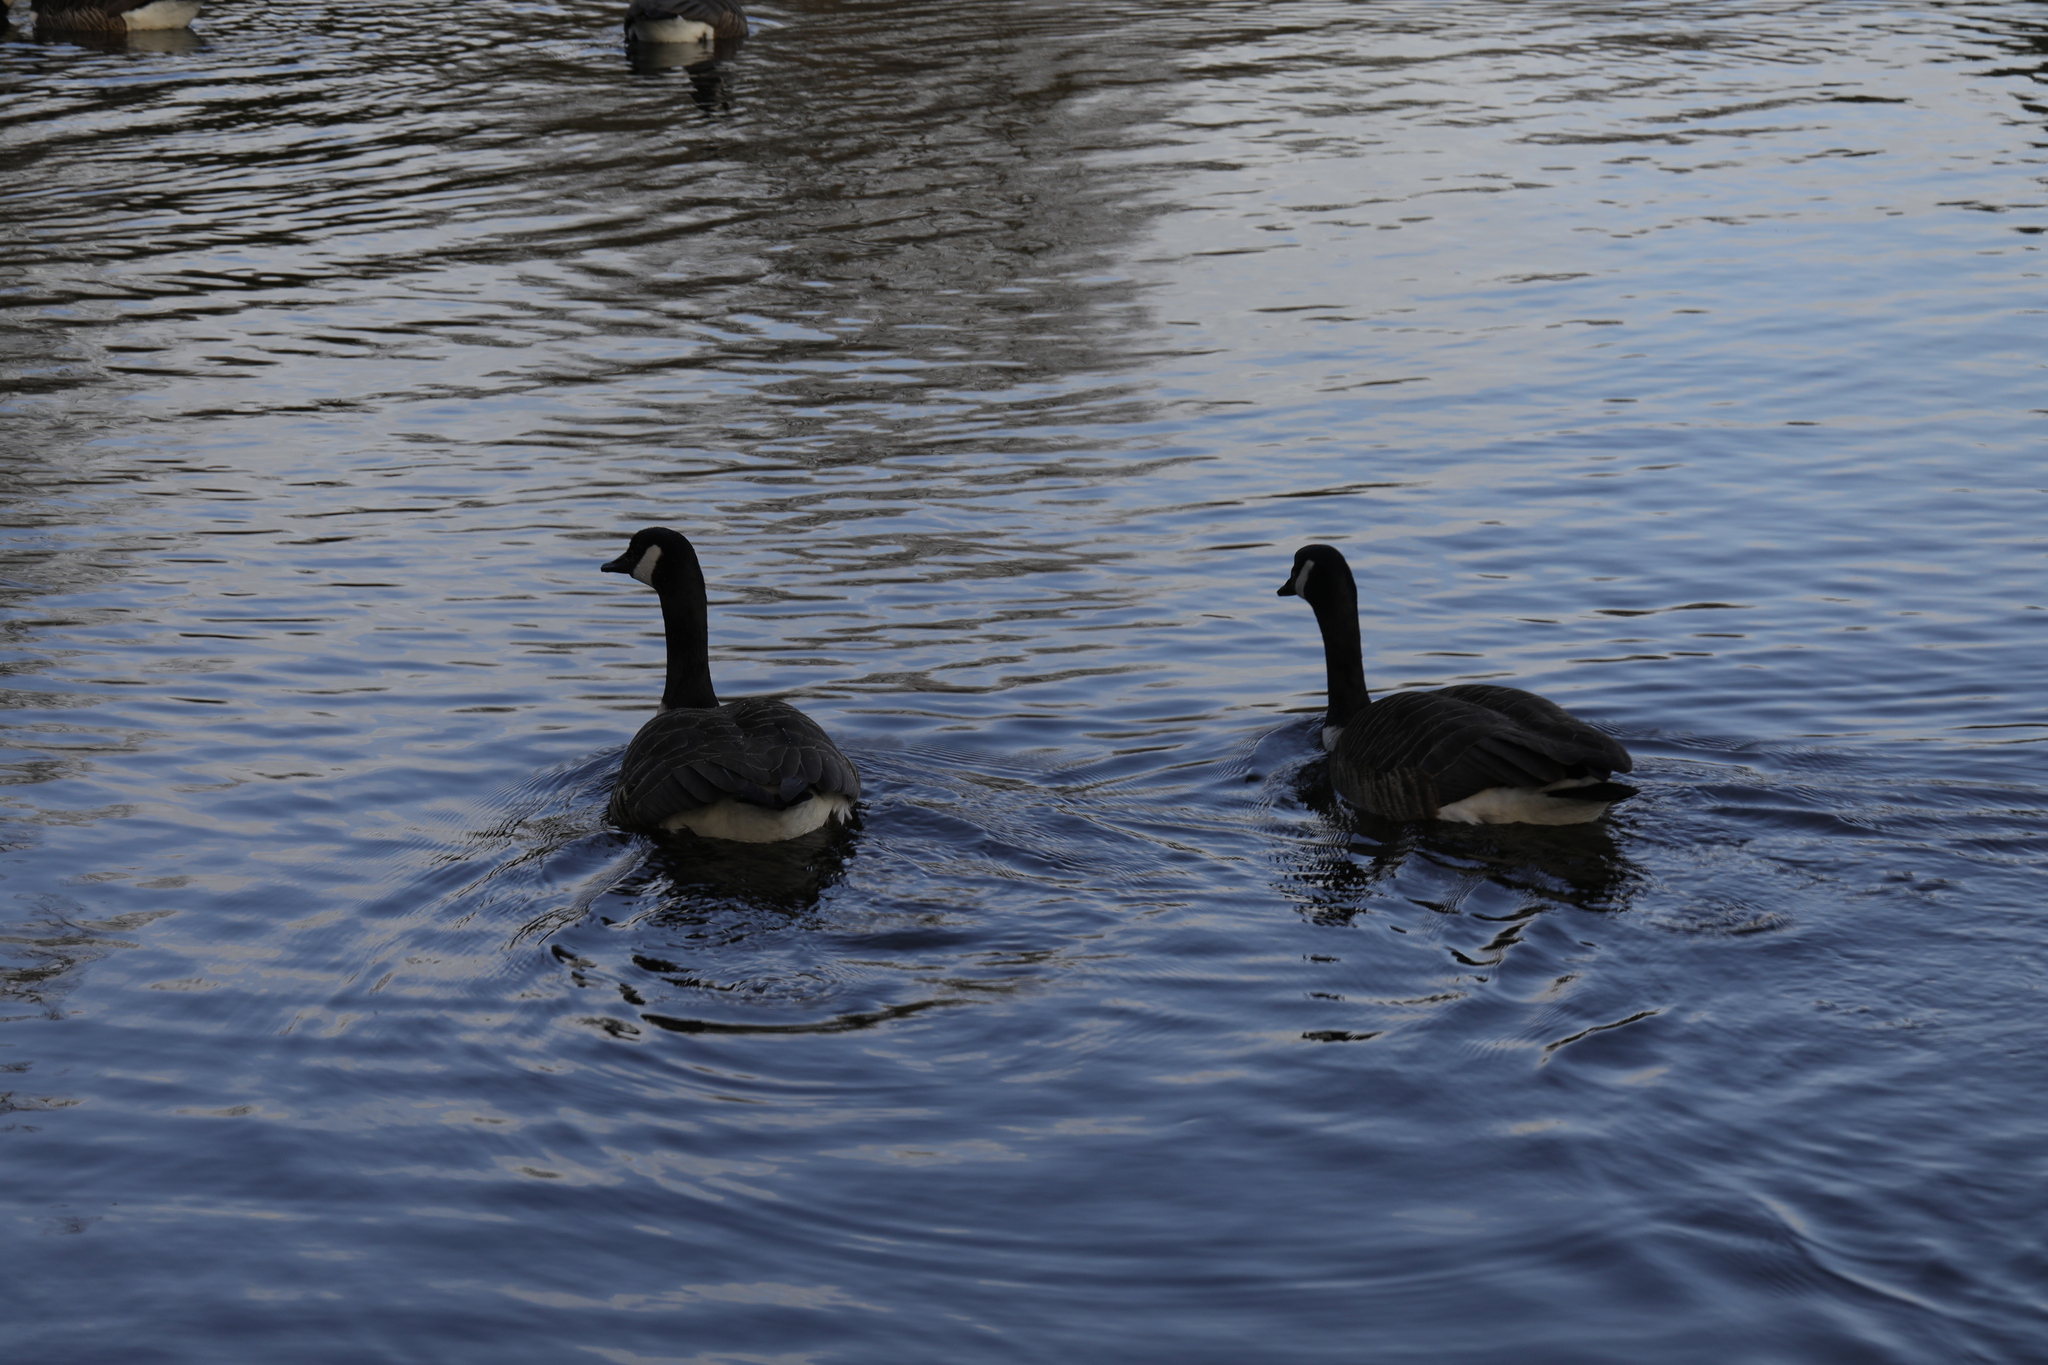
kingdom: Animalia
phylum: Chordata
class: Aves
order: Anseriformes
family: Anatidae
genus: Branta
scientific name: Branta canadensis
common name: Canada goose
